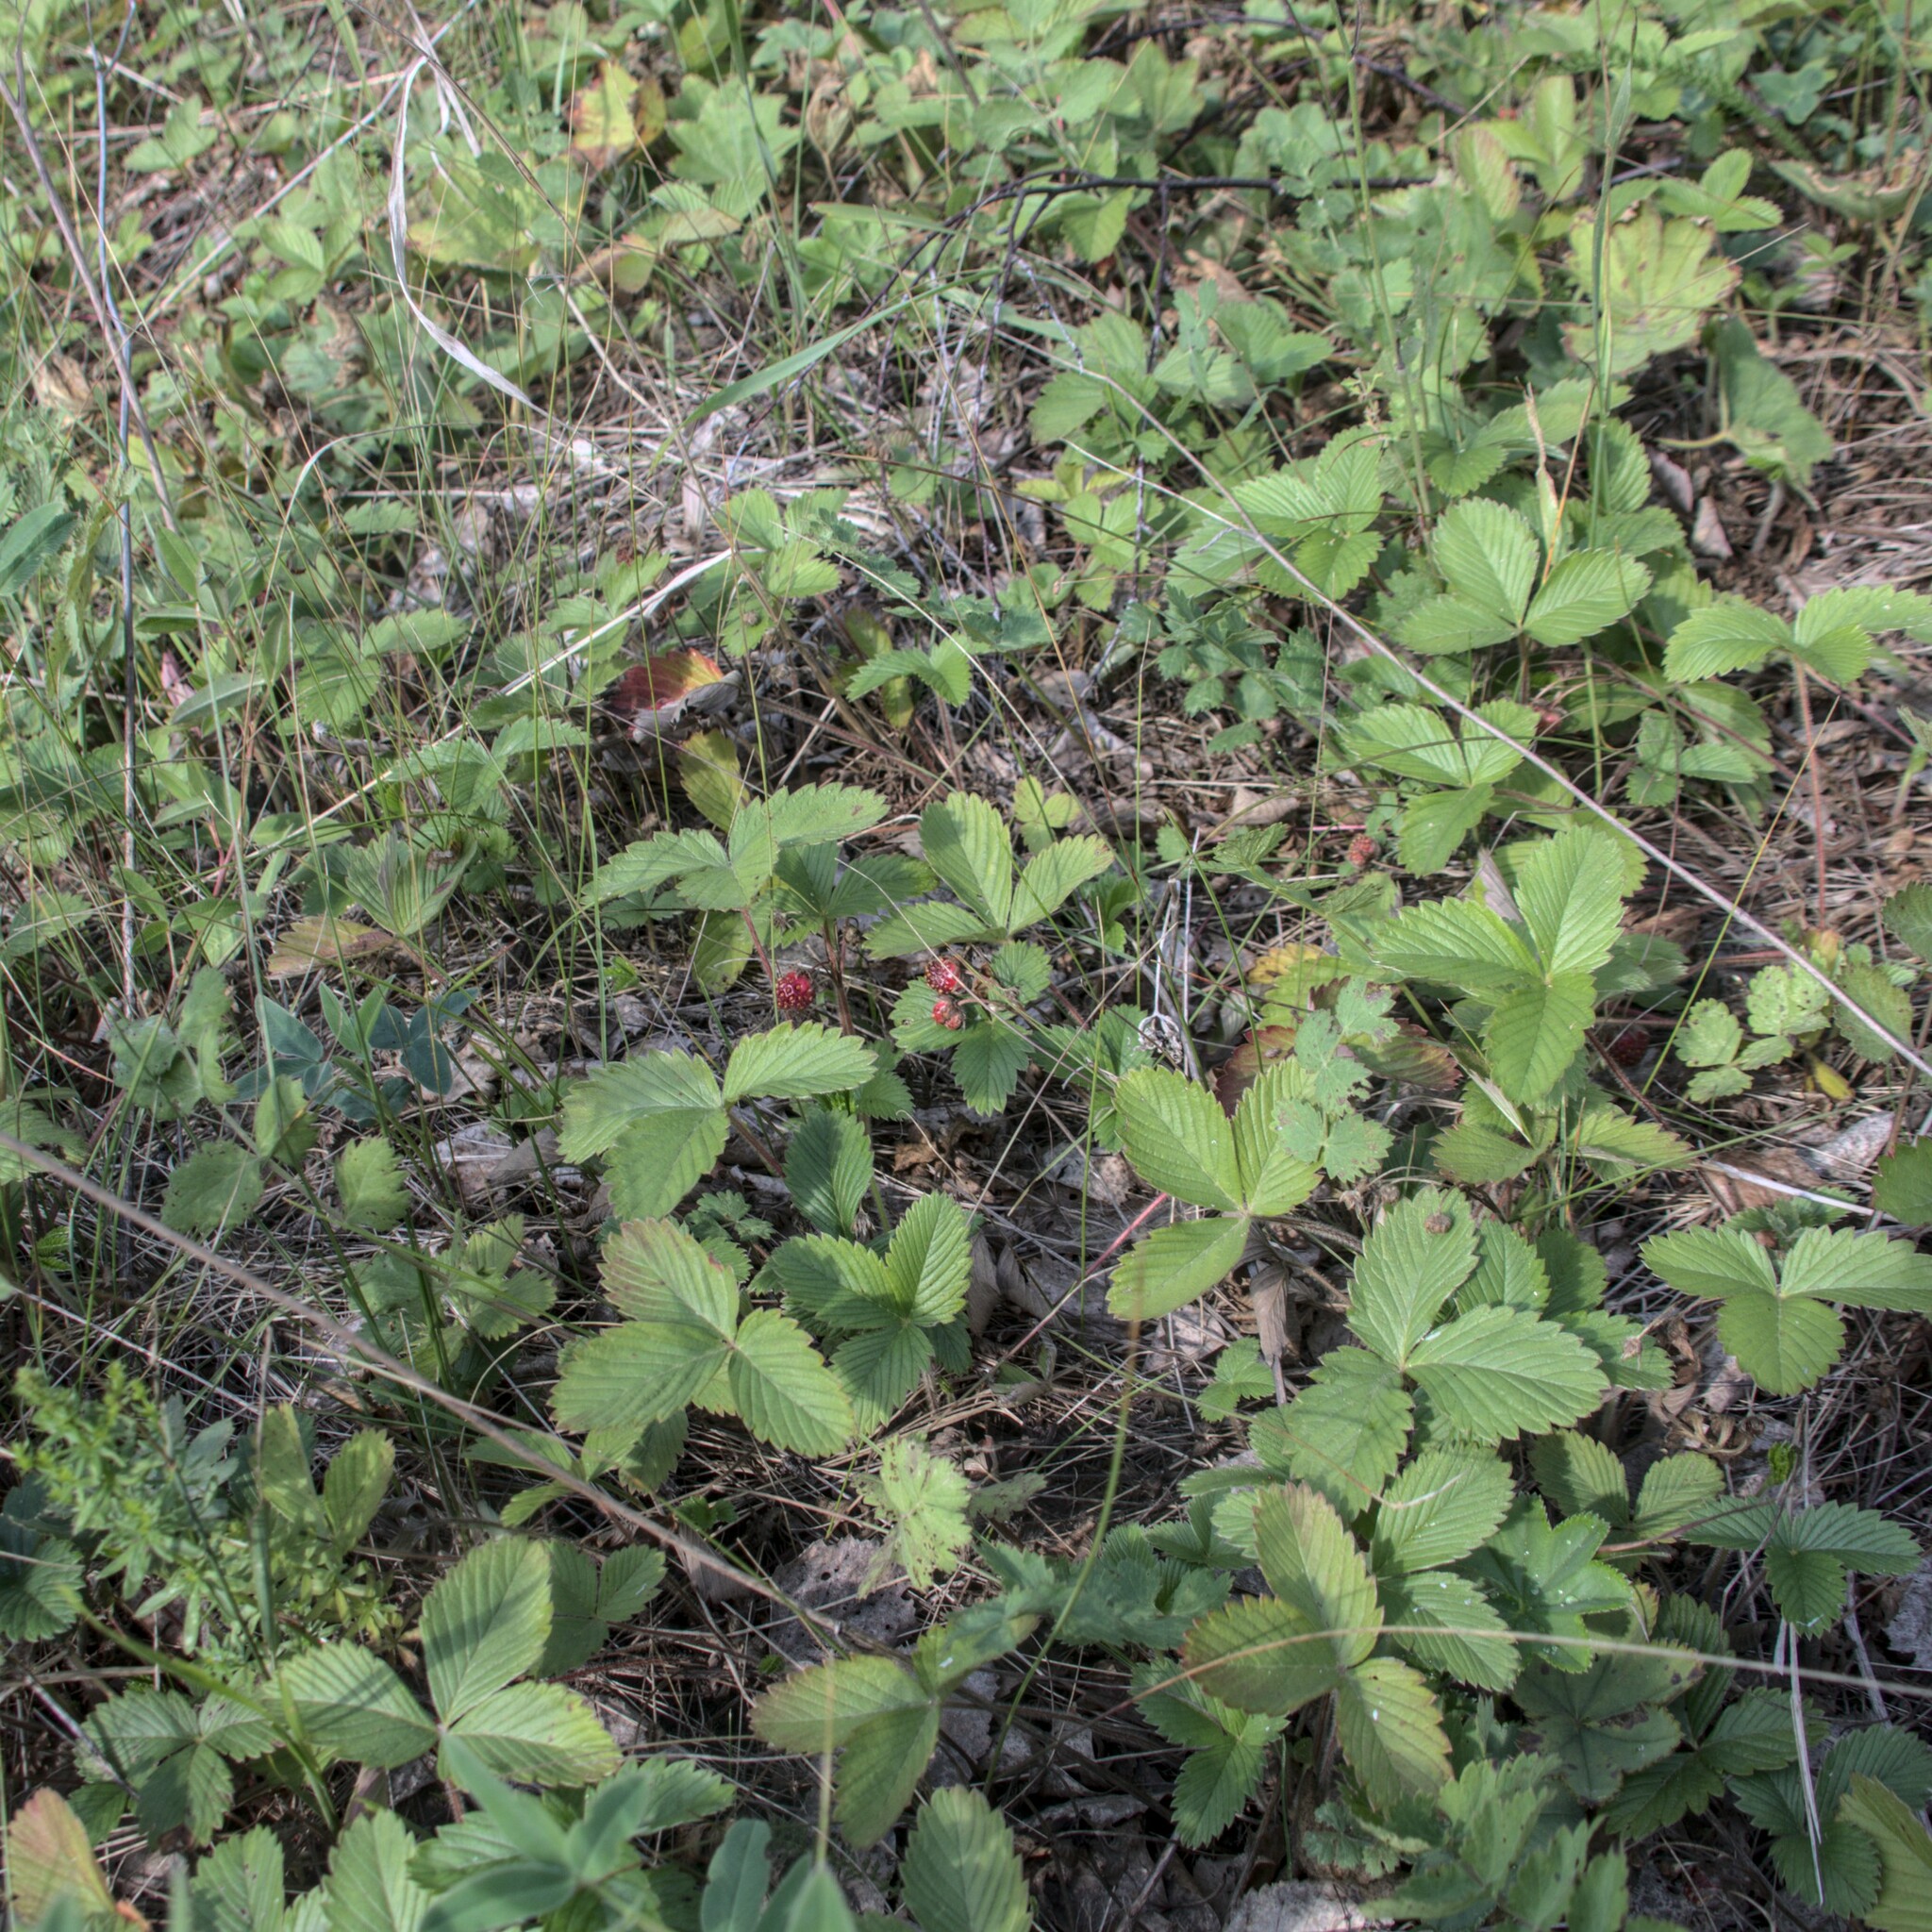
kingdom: Plantae
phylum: Tracheophyta
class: Magnoliopsida
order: Rosales
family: Rosaceae
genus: Fragaria
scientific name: Fragaria viridis
